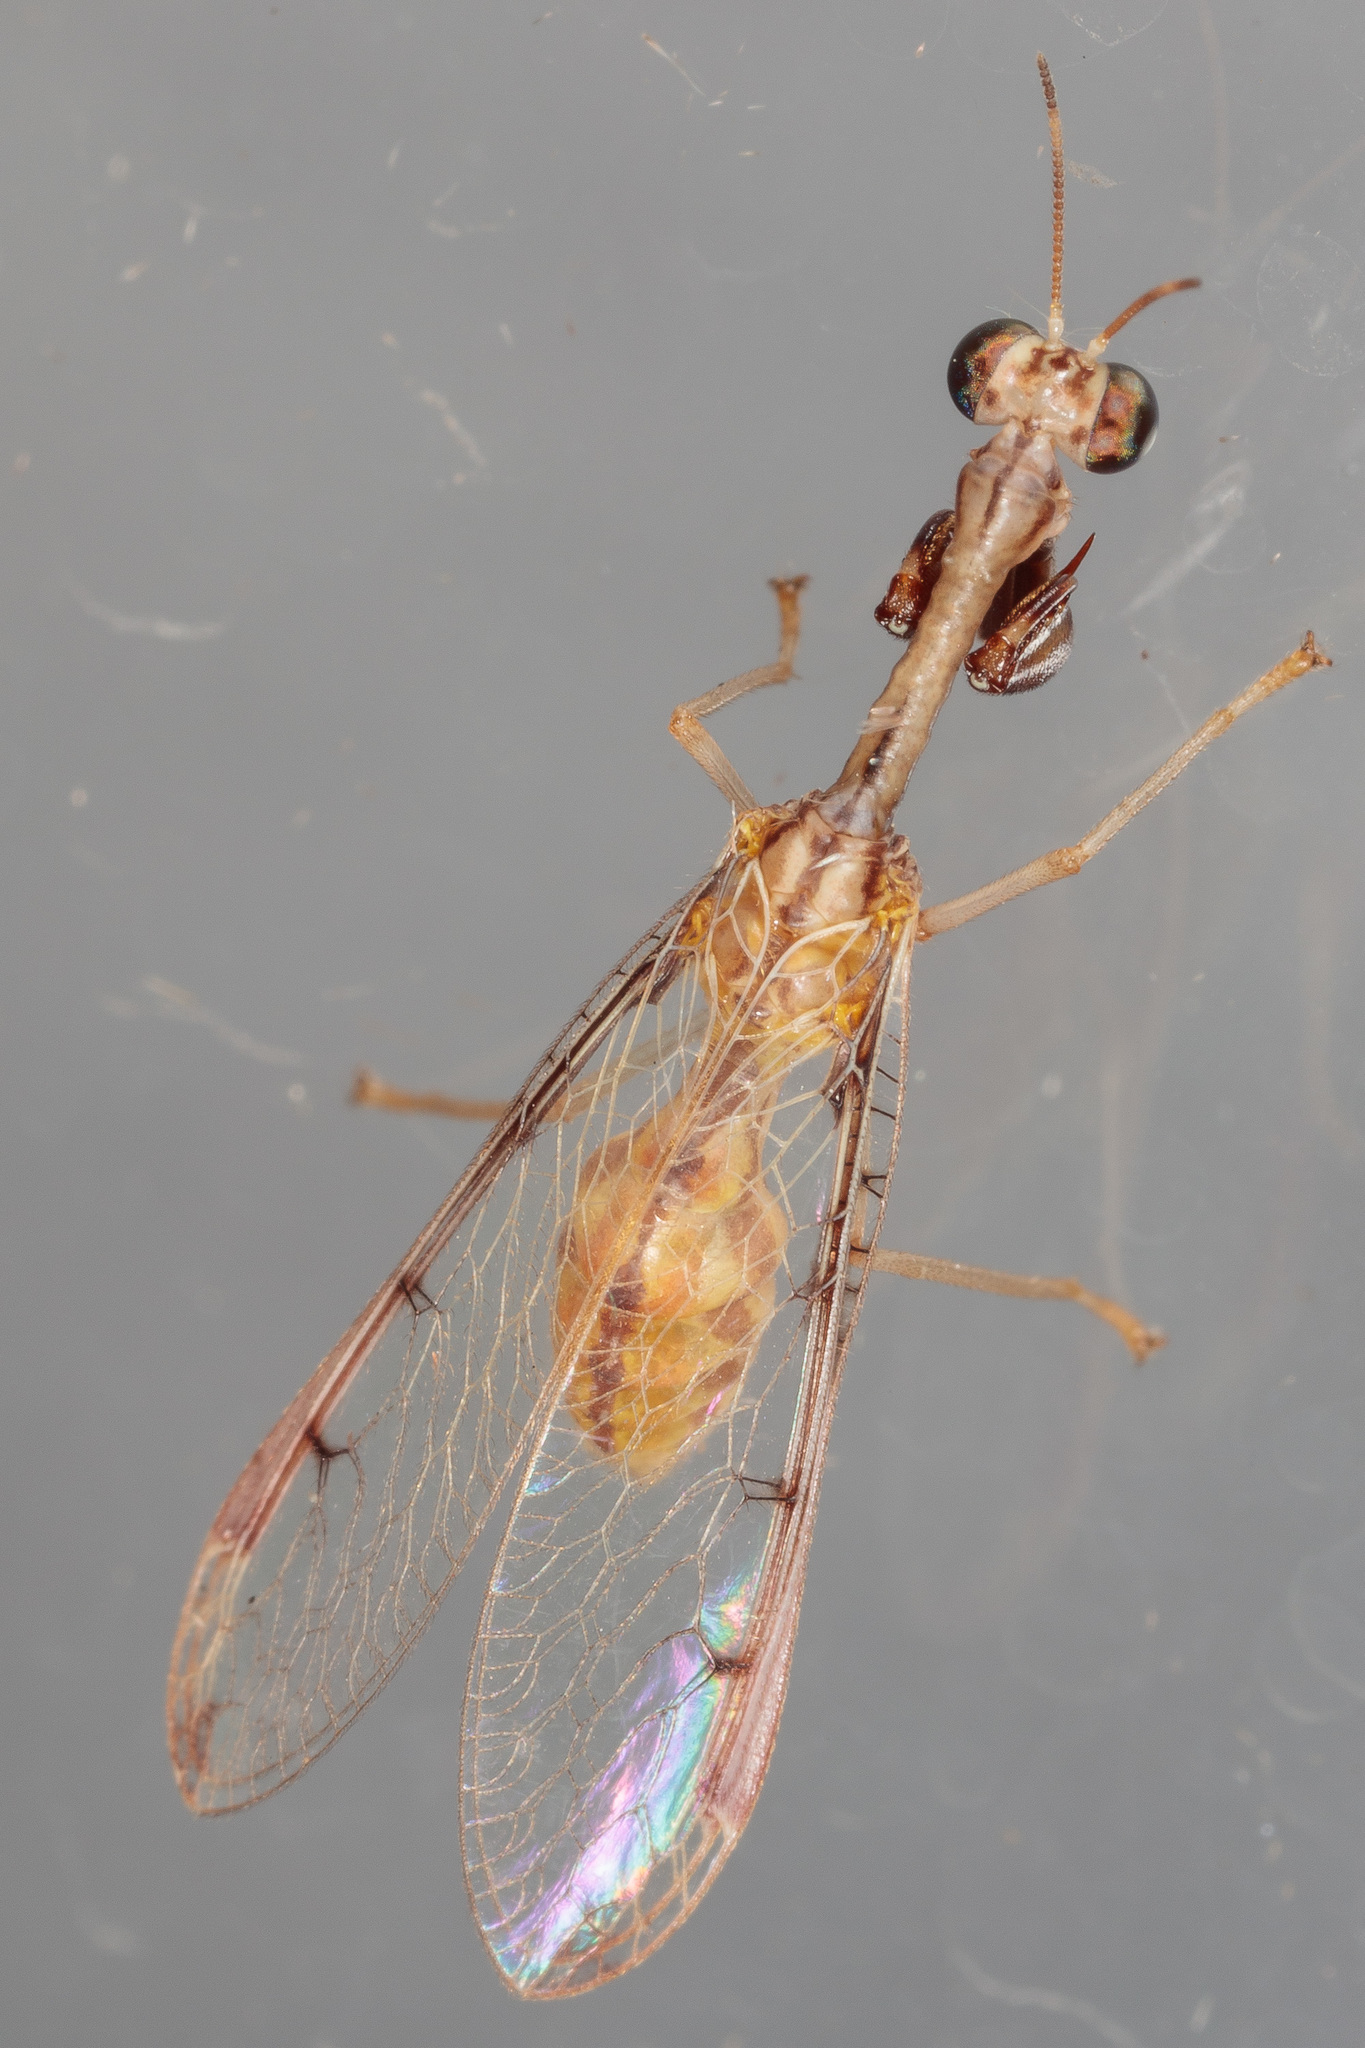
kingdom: Animalia
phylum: Arthropoda
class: Insecta
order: Neuroptera
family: Mantispidae
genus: Dicromantispa
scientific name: Dicromantispa interrupta
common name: Four-spotted mantidfly
